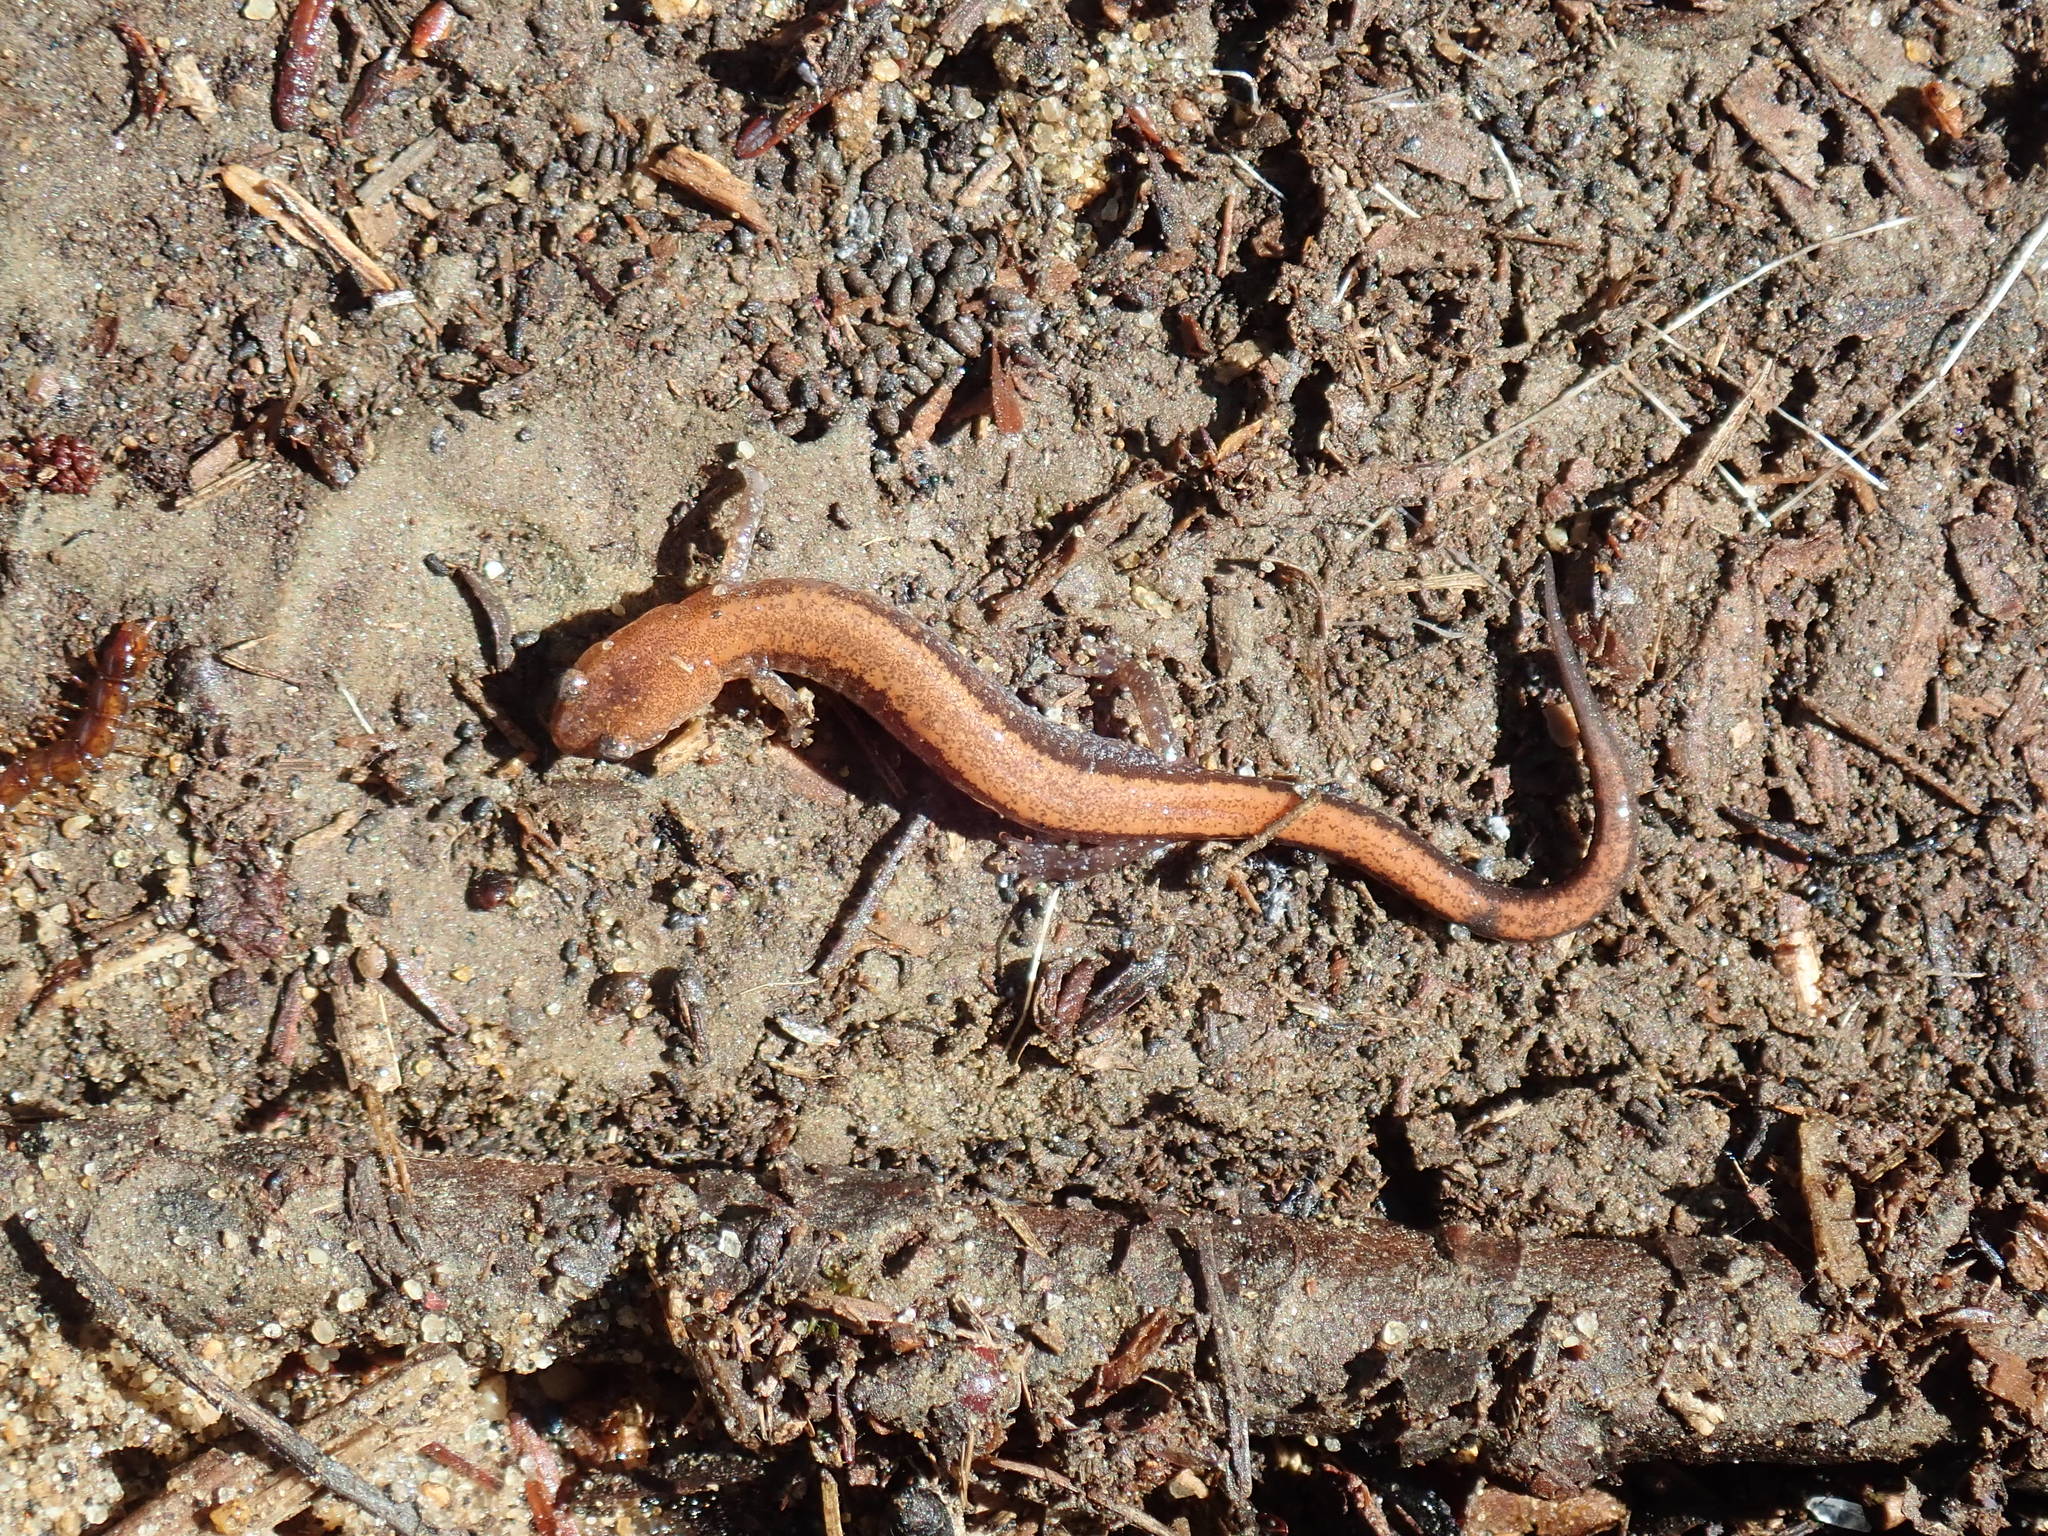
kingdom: Animalia
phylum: Chordata
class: Amphibia
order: Caudata
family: Plethodontidae
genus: Plethodon
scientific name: Plethodon cinereus
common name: Redback salamander
